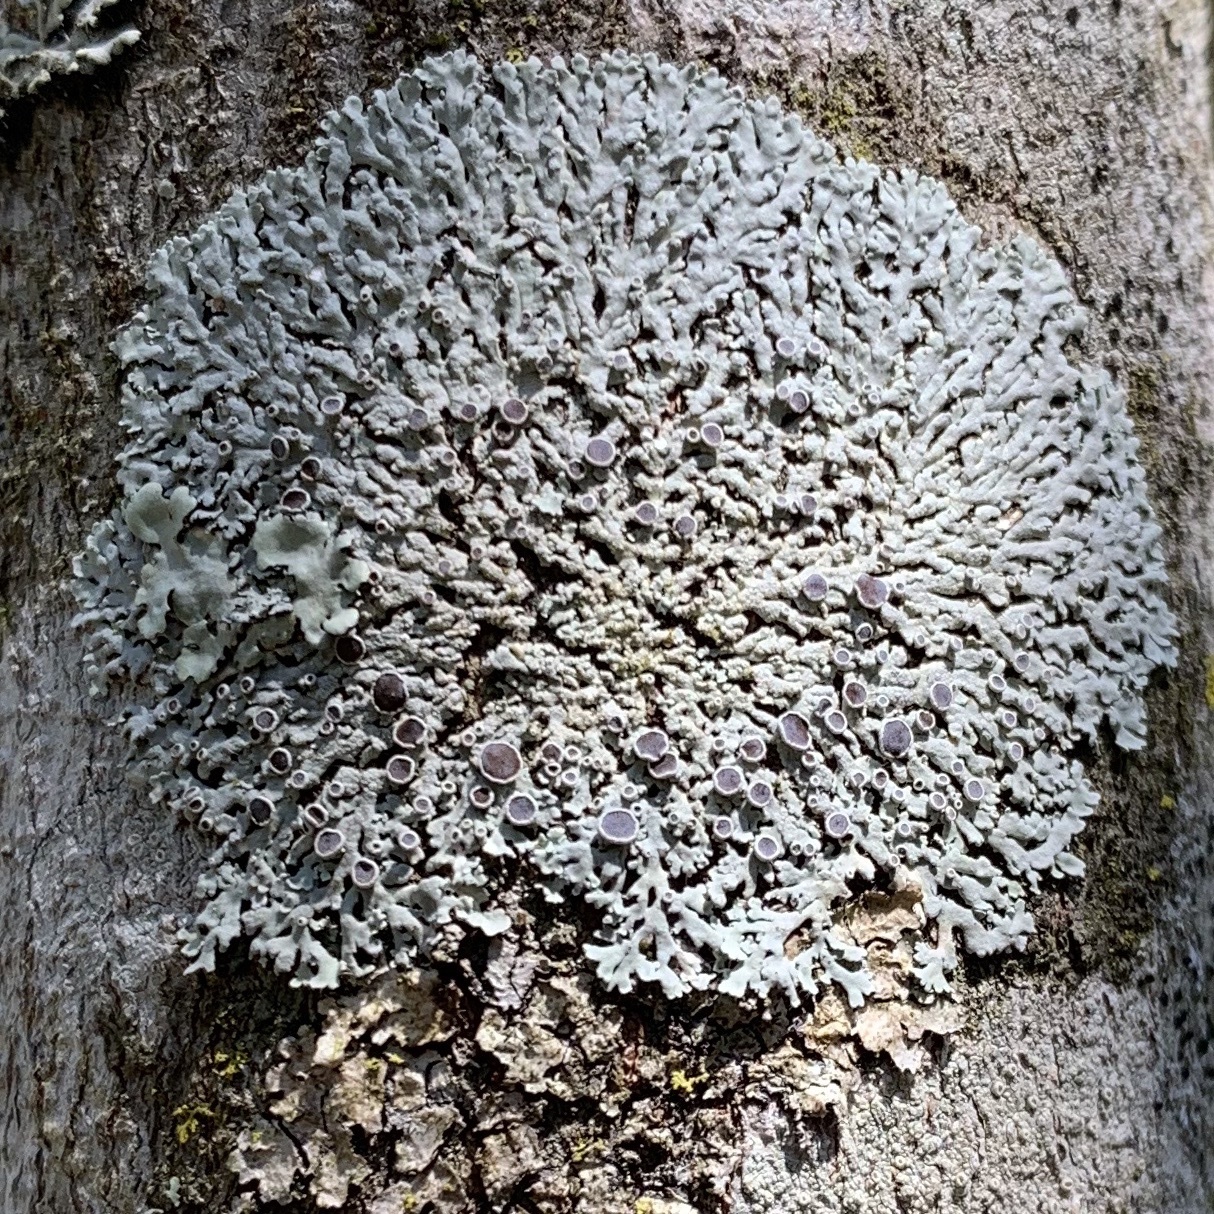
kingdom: Fungi
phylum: Ascomycota
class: Lecanoromycetes
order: Caliciales
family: Physciaceae
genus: Physcia
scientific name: Physcia pumilior
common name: Lesser gray legs
